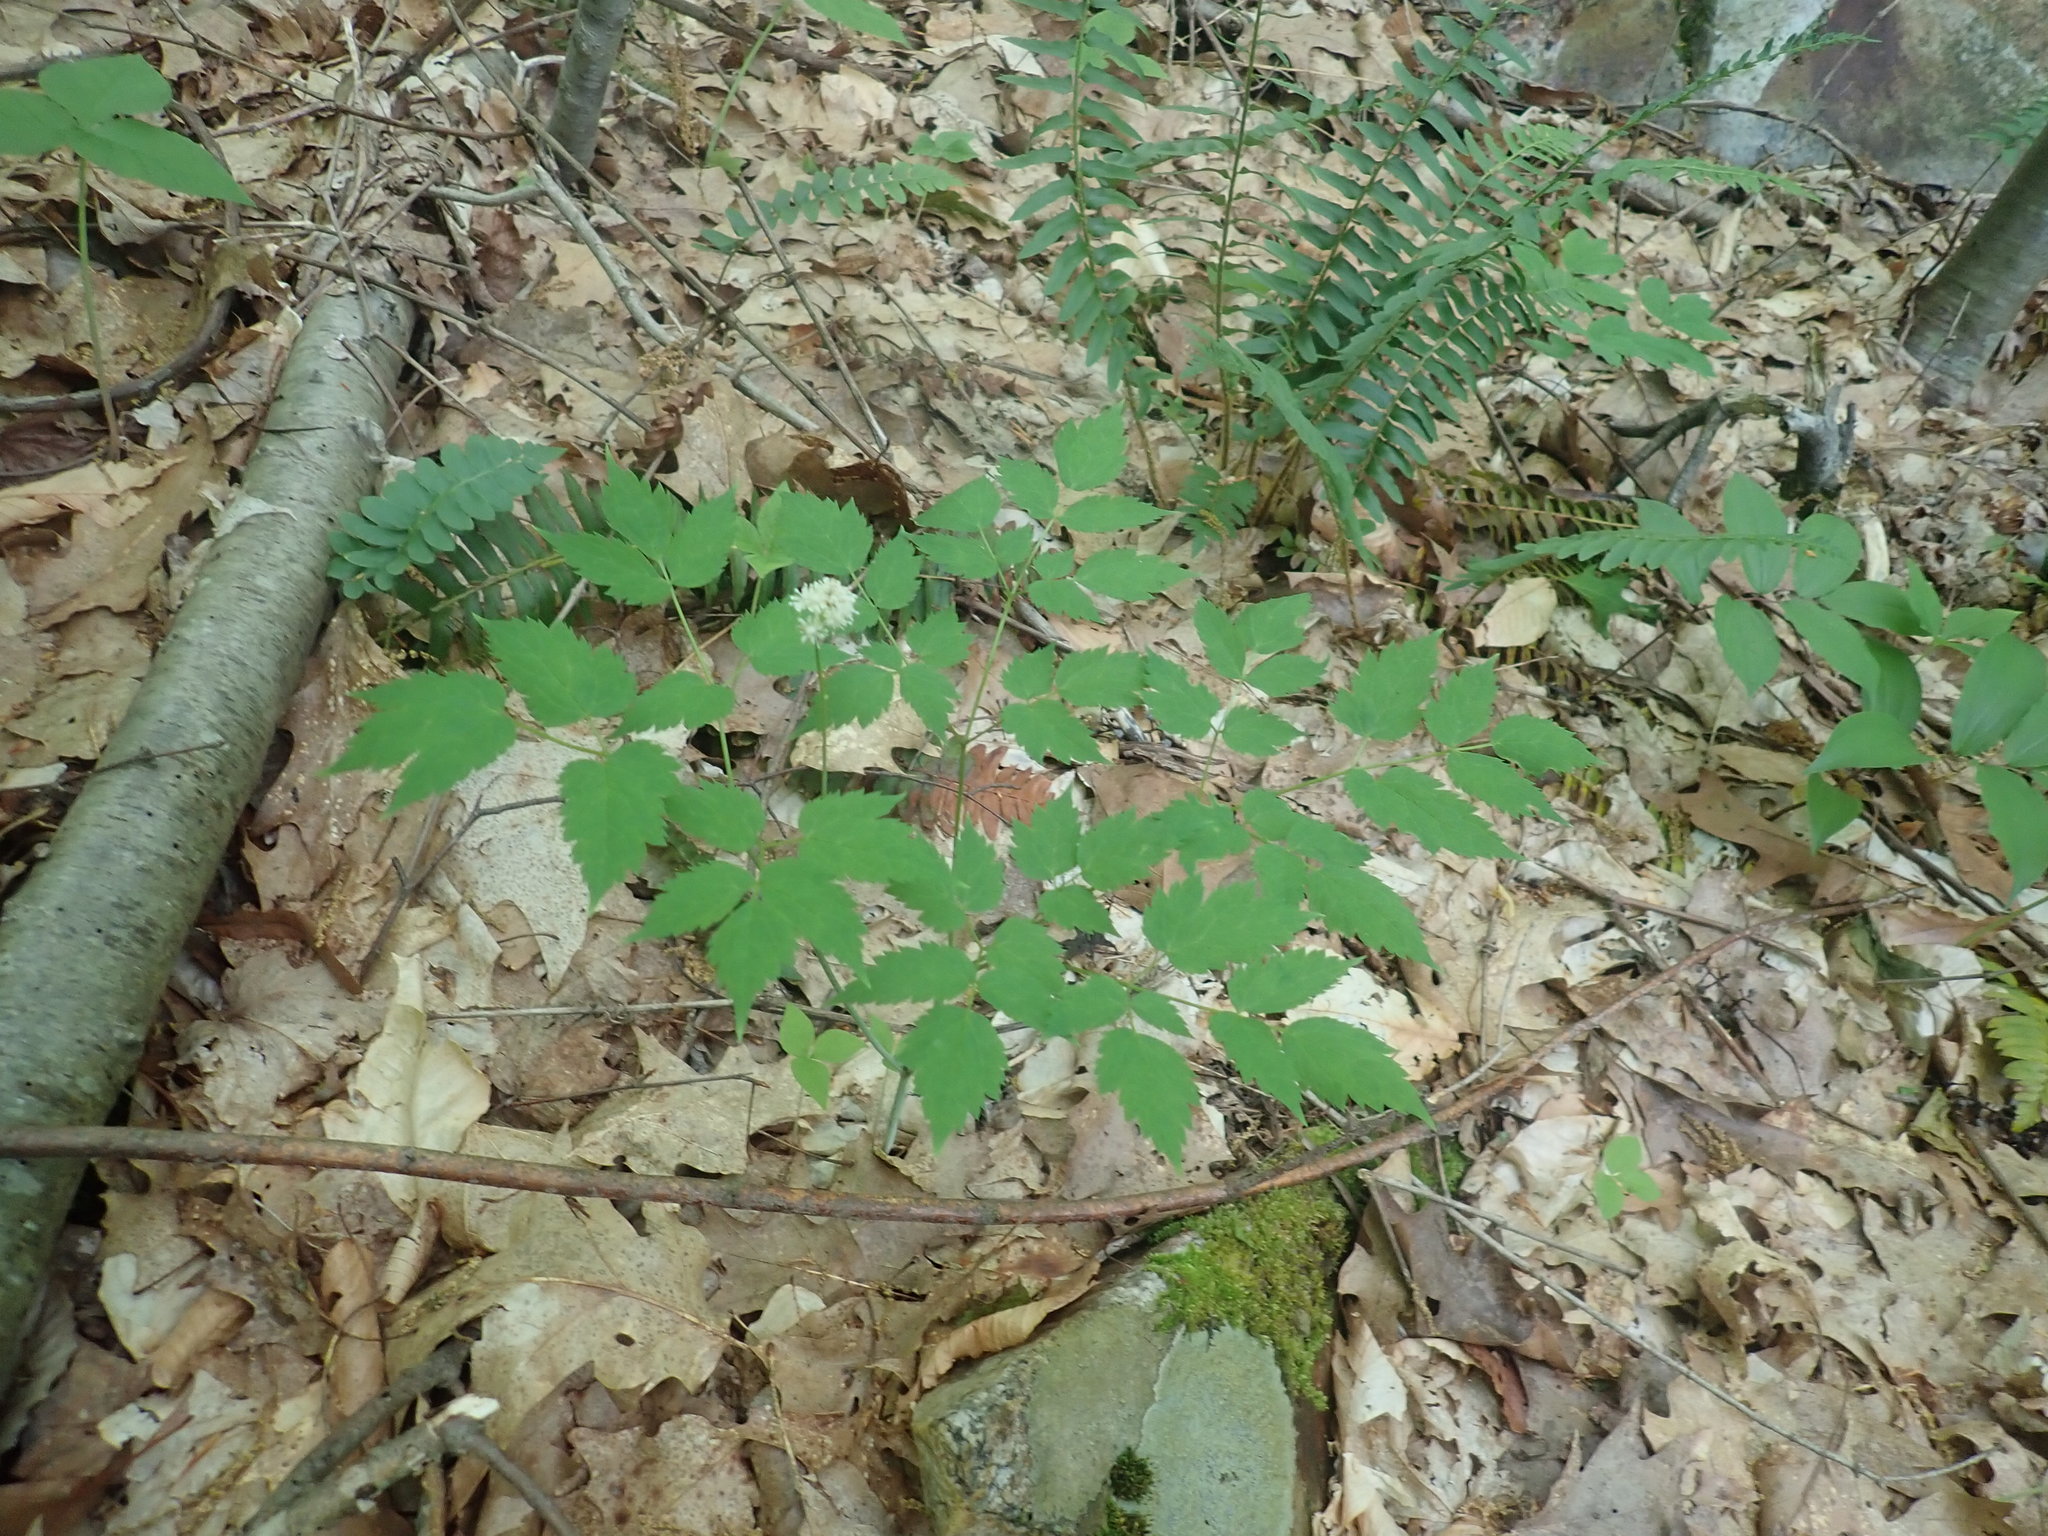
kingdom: Plantae
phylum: Tracheophyta
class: Magnoliopsida
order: Ranunculales
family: Ranunculaceae
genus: Actaea
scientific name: Actaea pachypoda
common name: Doll's-eyes
